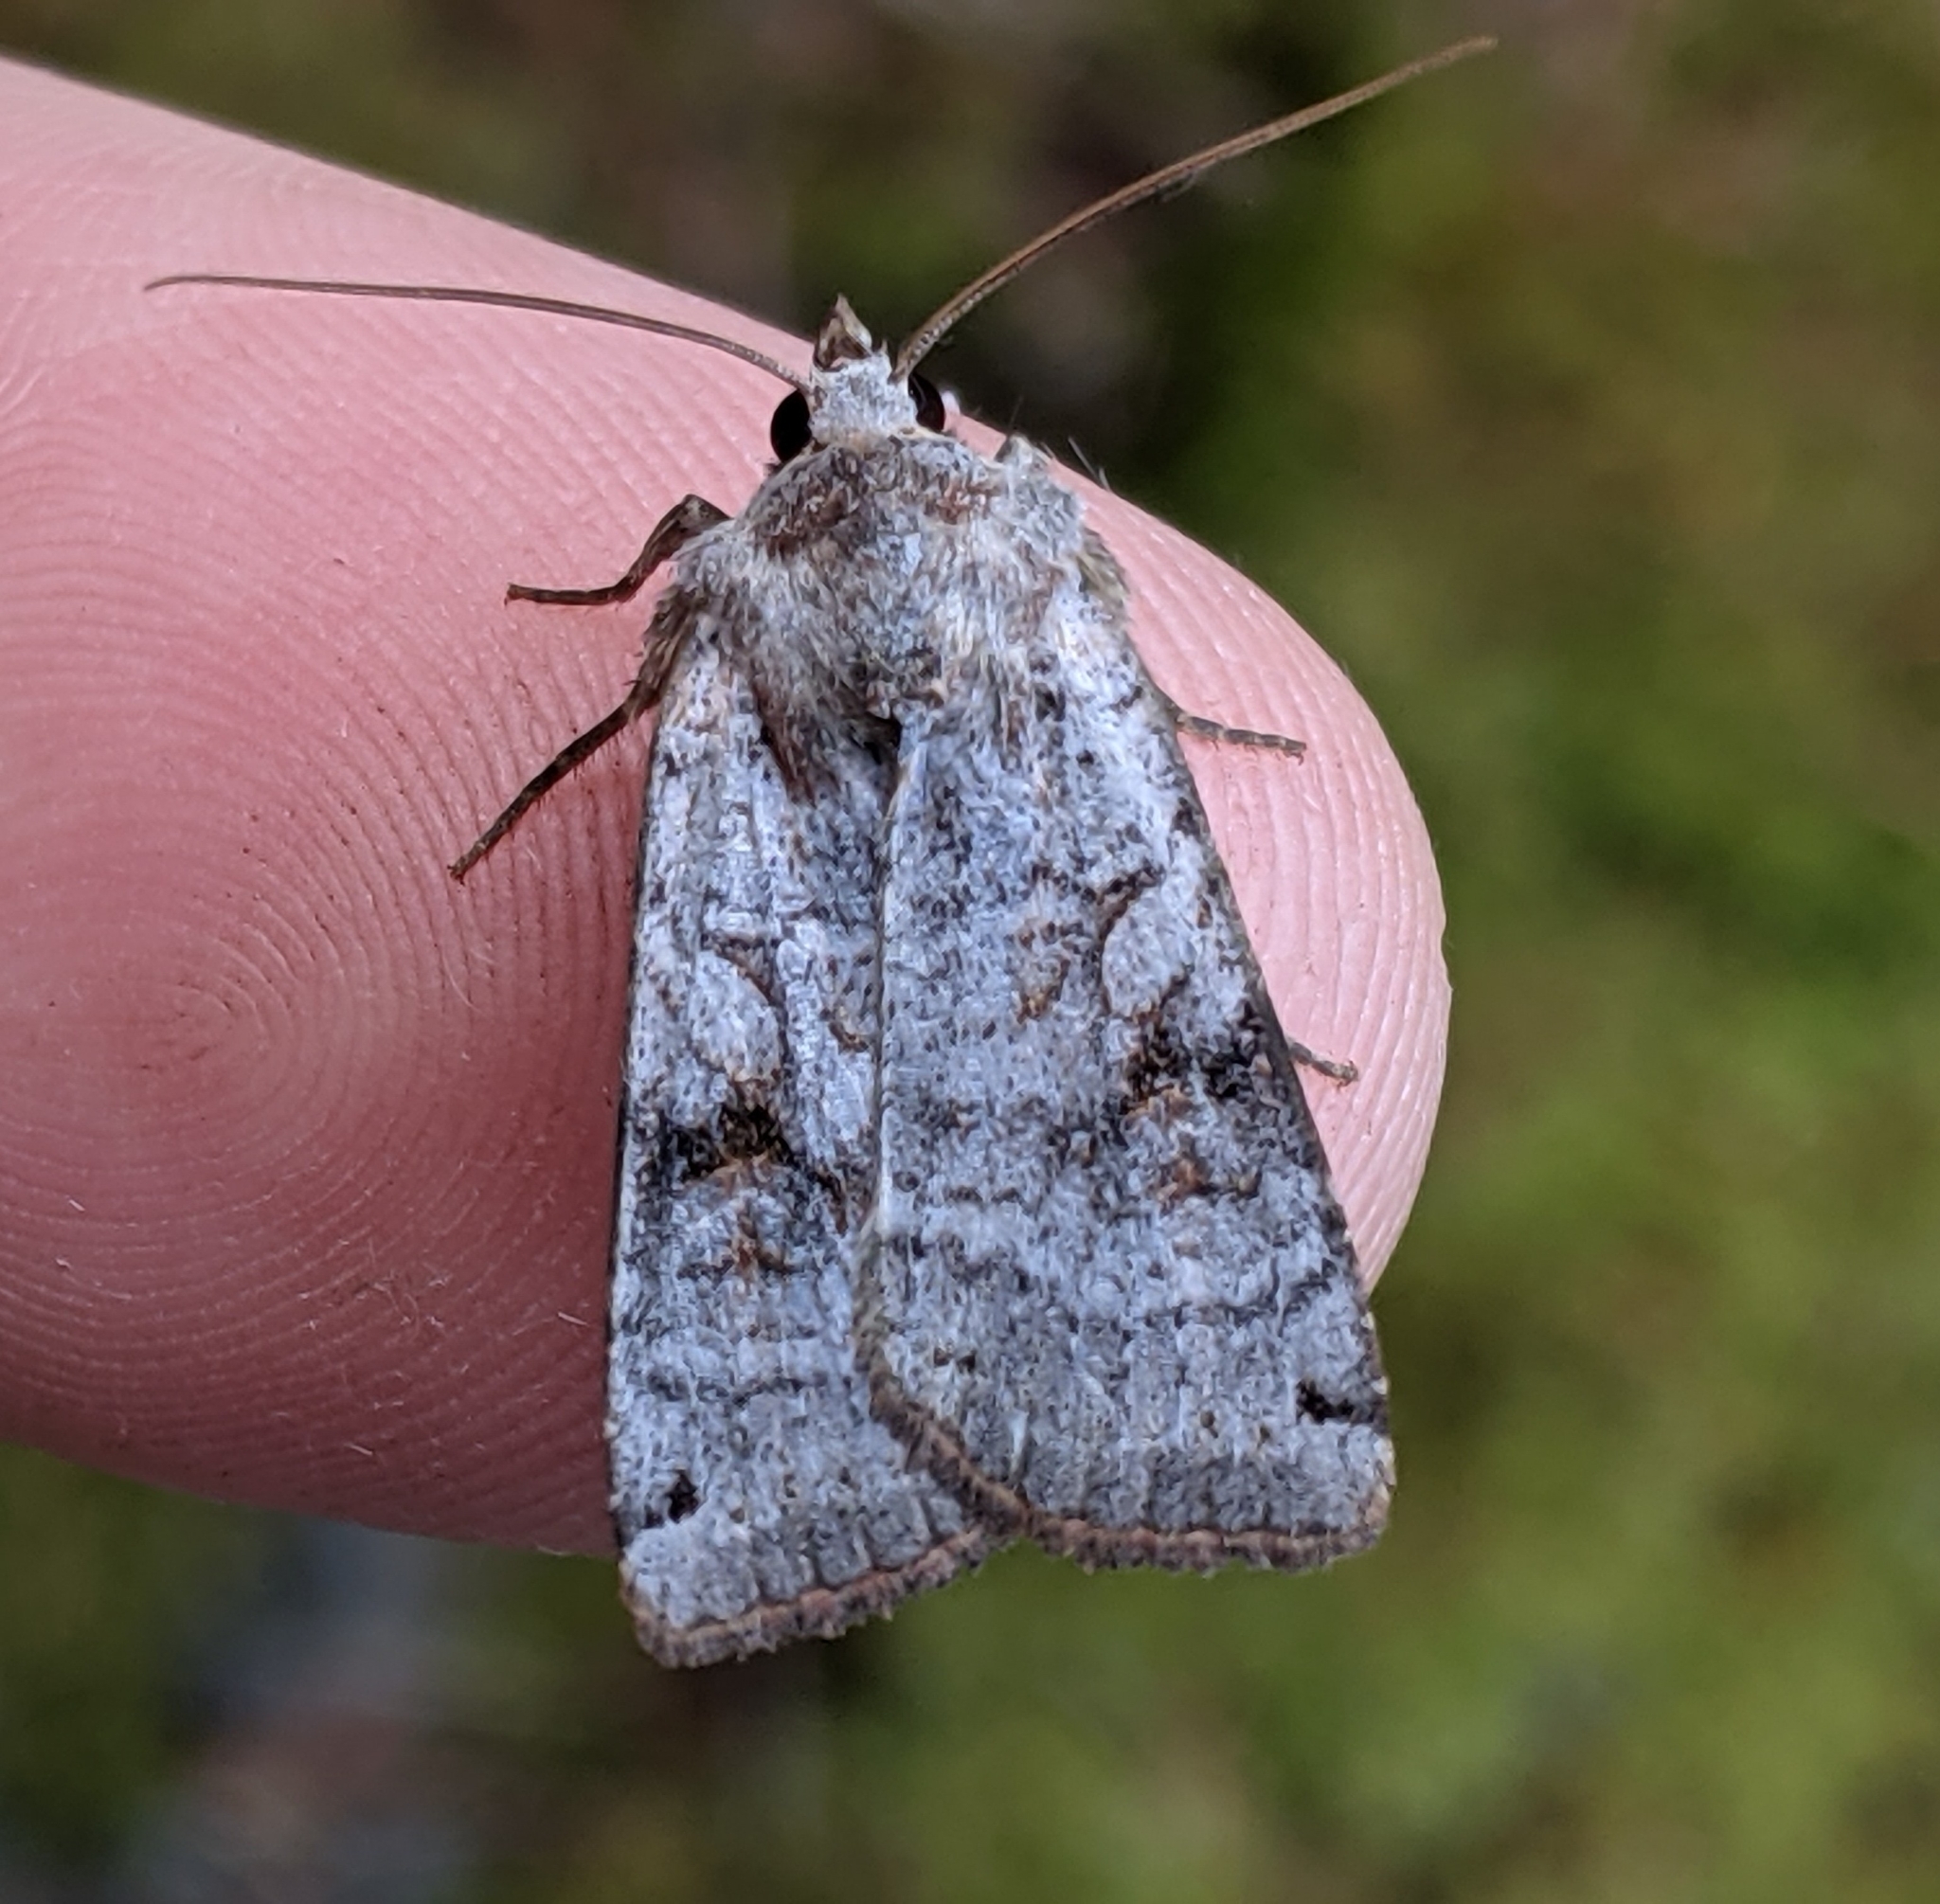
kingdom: Animalia
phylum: Arthropoda
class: Insecta
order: Lepidoptera
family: Noctuidae
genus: Xestia
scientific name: Xestia smithii
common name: Smith's dart
